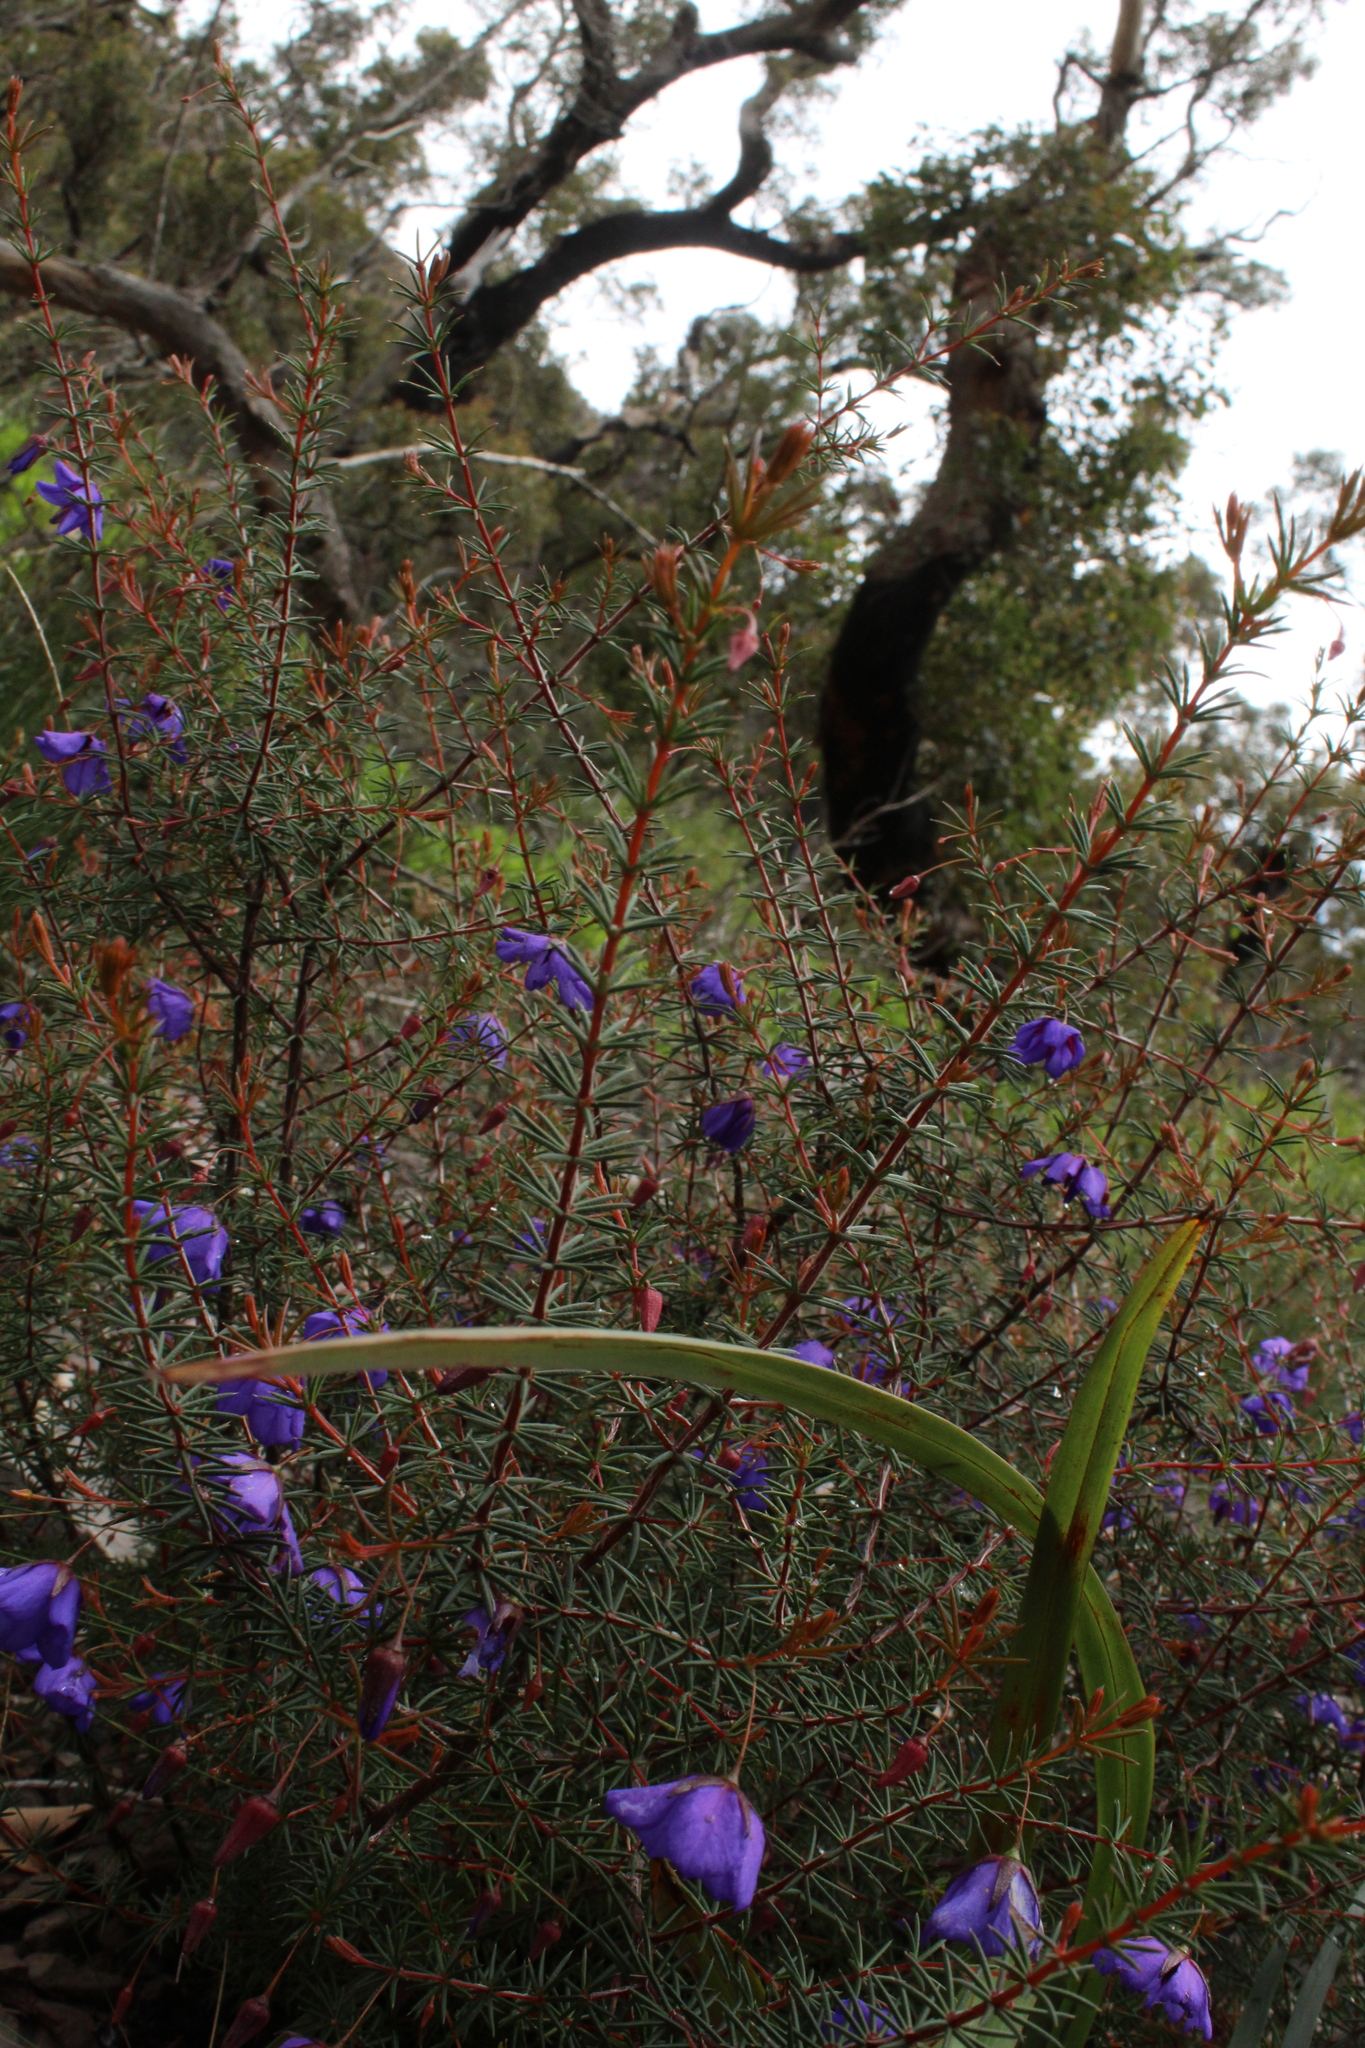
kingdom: Plantae
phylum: Tracheophyta
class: Magnoliopsida
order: Oxalidales
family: Elaeocarpaceae
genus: Platytheca
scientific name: Platytheca juniperina
